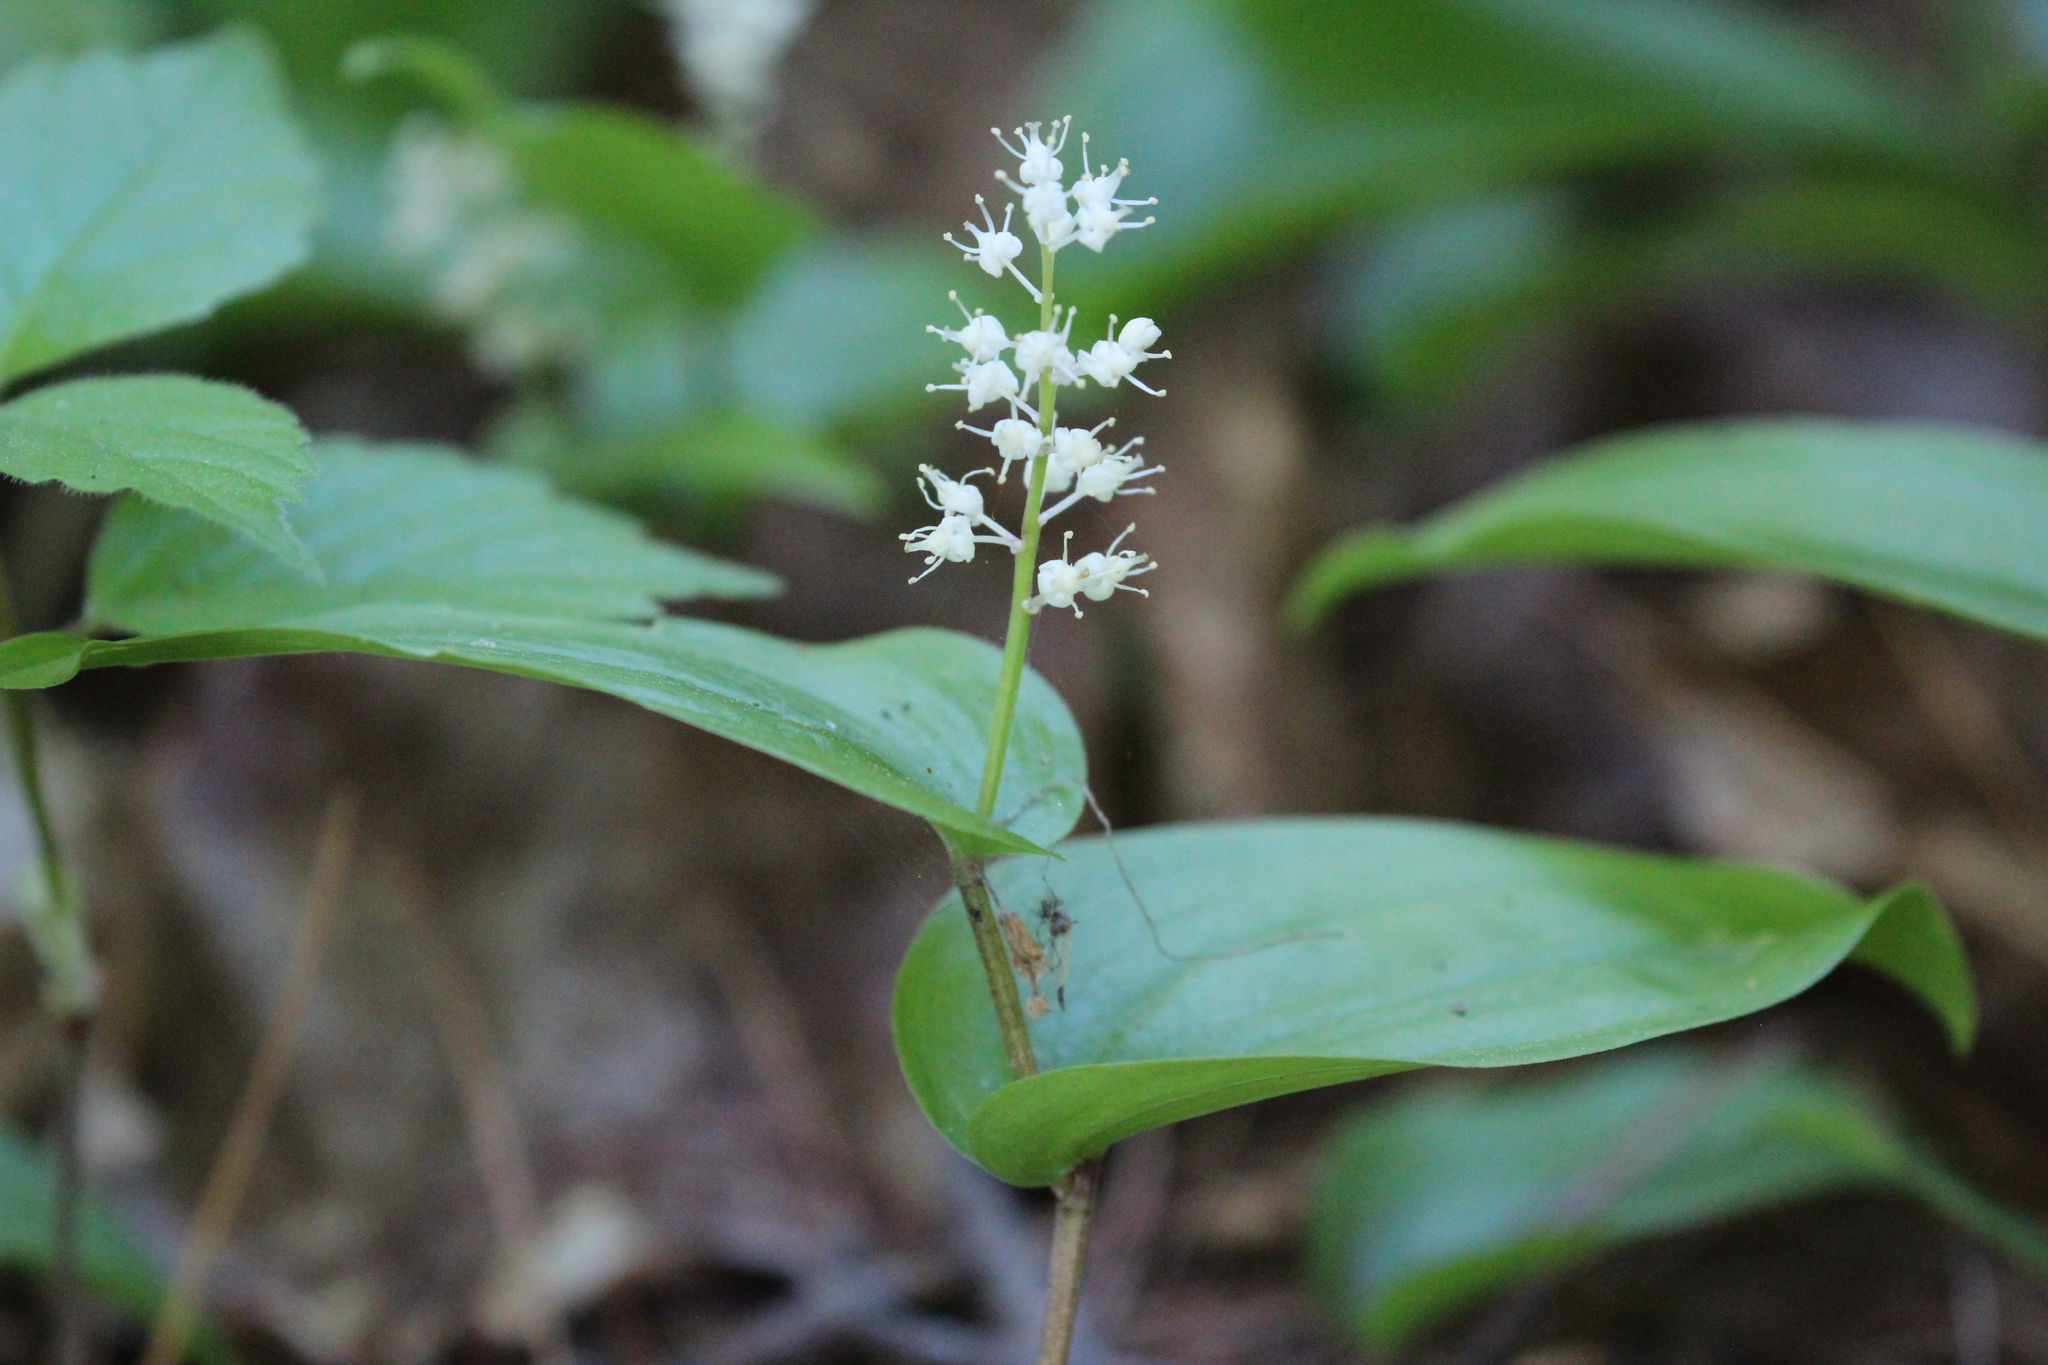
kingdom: Plantae
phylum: Tracheophyta
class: Liliopsida
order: Asparagales
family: Asparagaceae
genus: Maianthemum
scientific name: Maianthemum canadense
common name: False lily-of-the-valley
